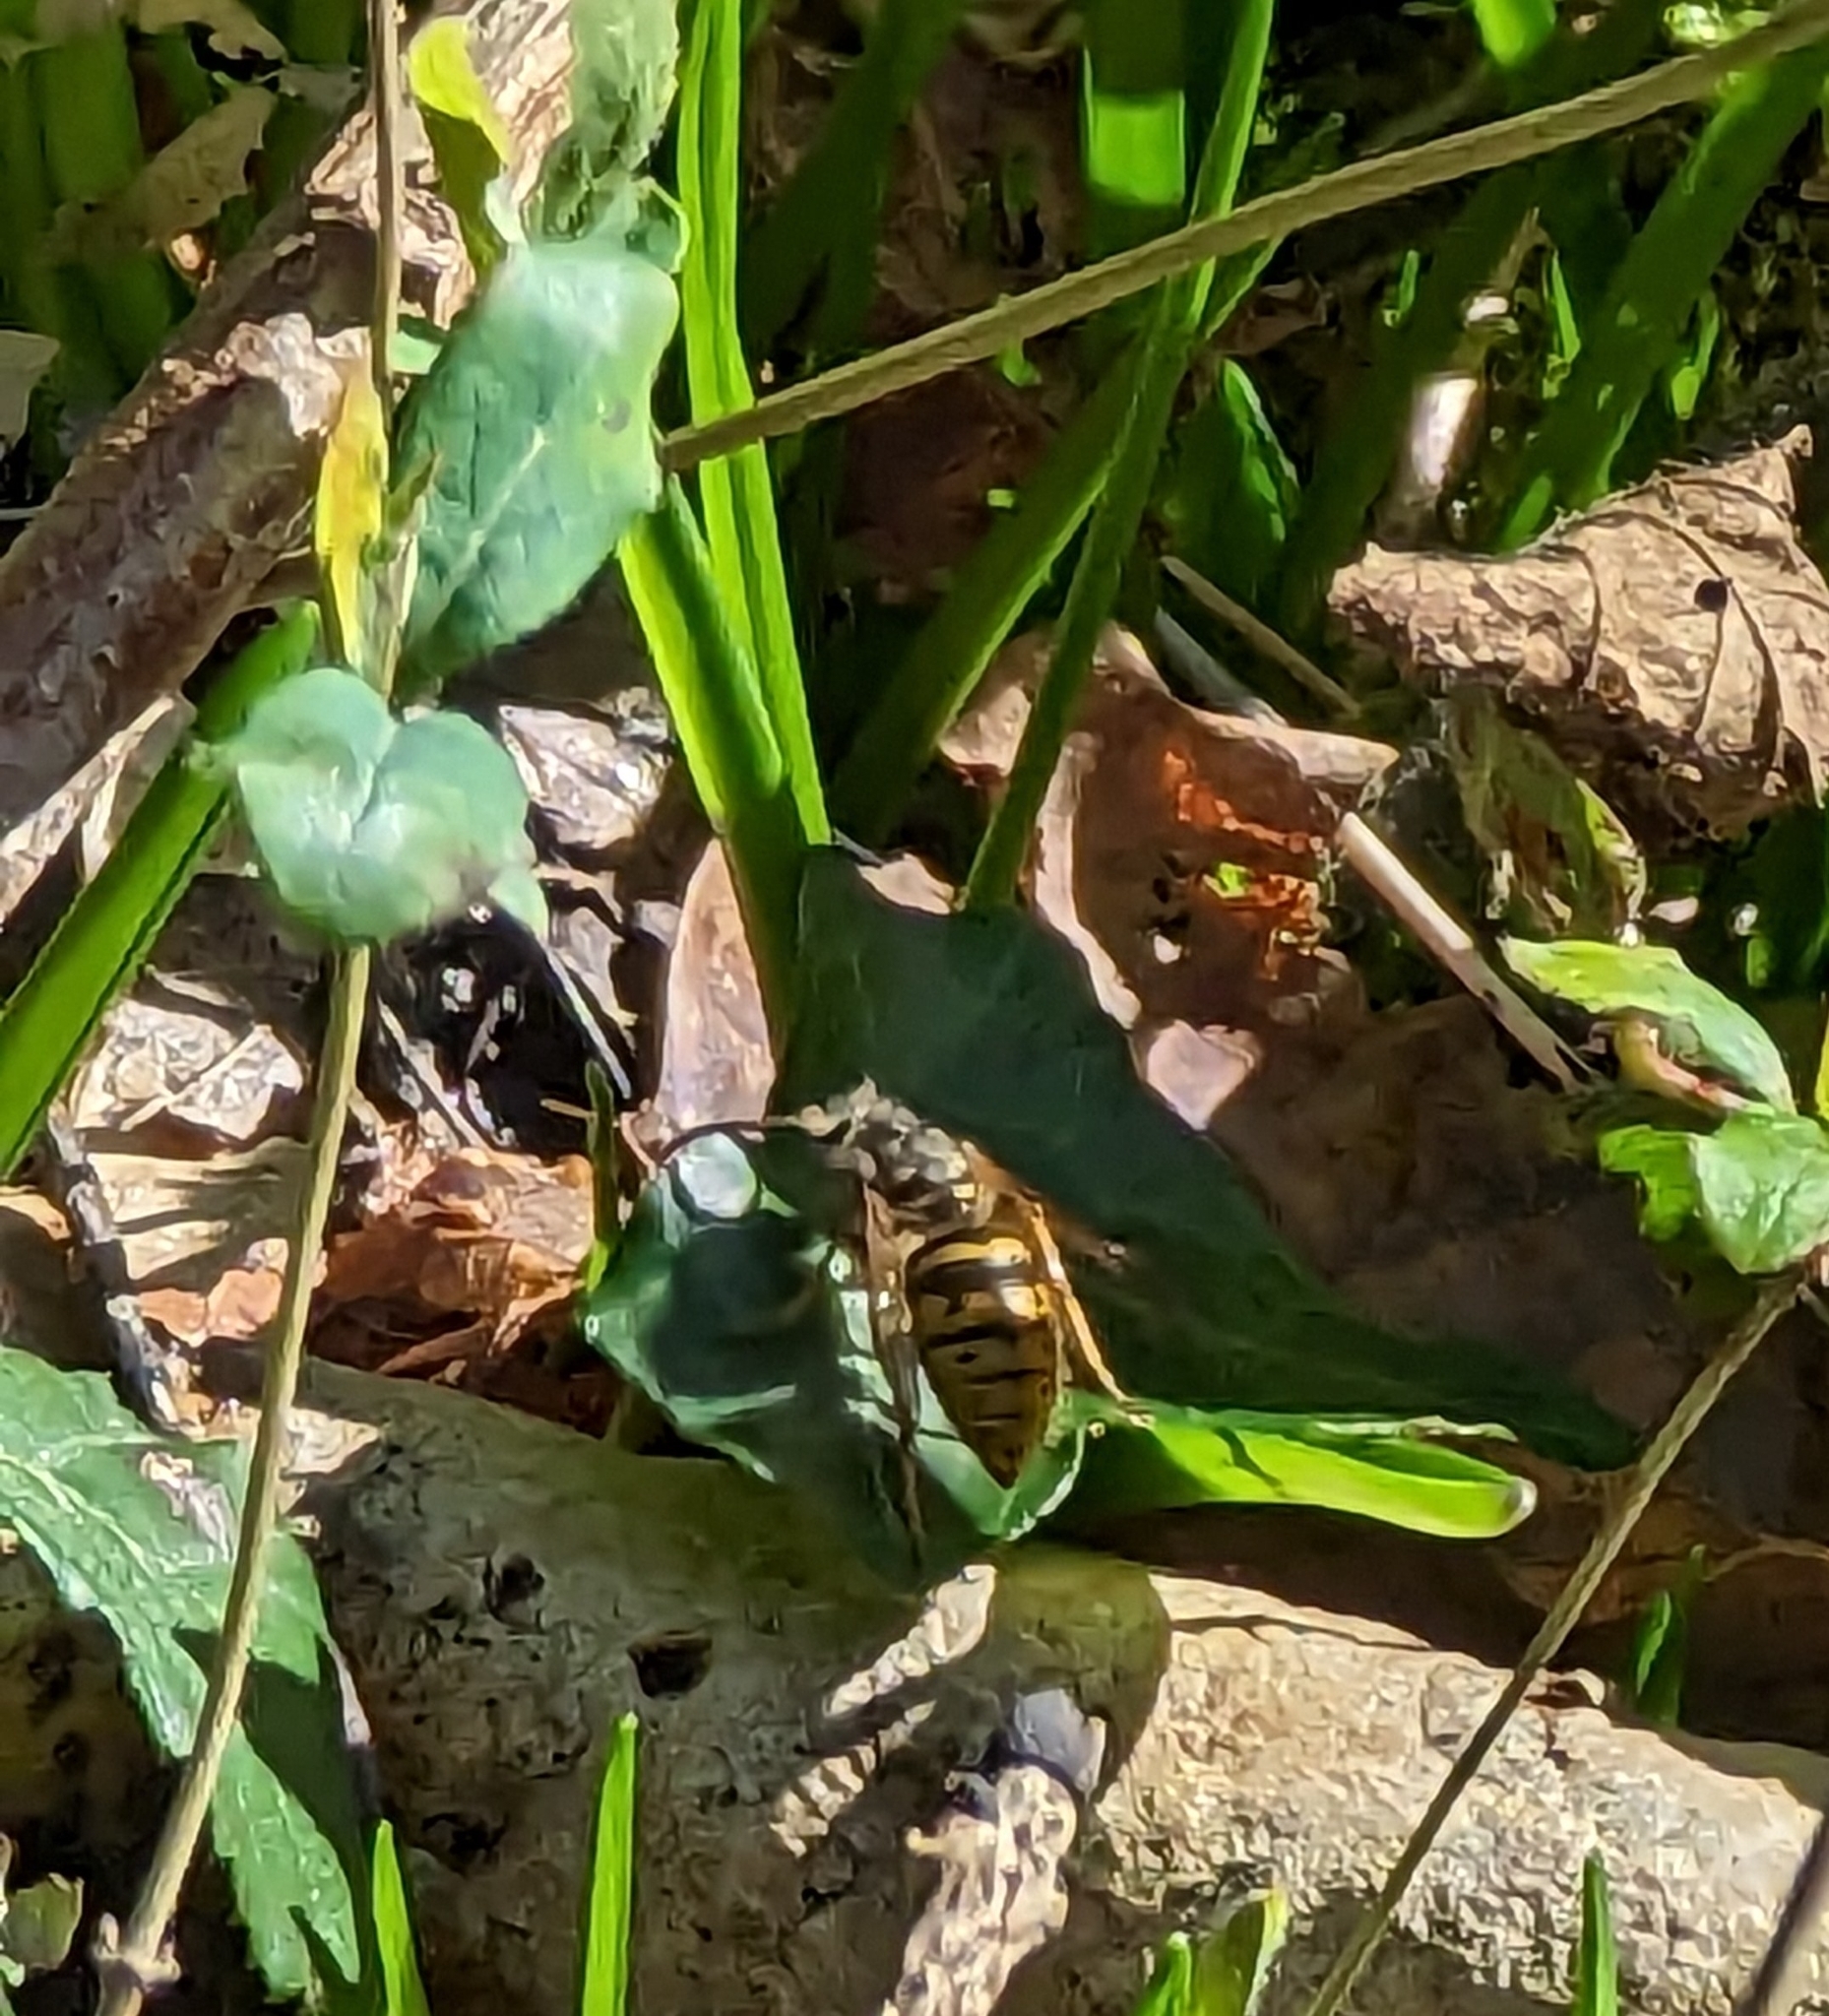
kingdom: Animalia
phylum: Arthropoda
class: Insecta
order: Hymenoptera
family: Vespidae
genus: Vespula
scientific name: Vespula vulgaris
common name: Common wasp
